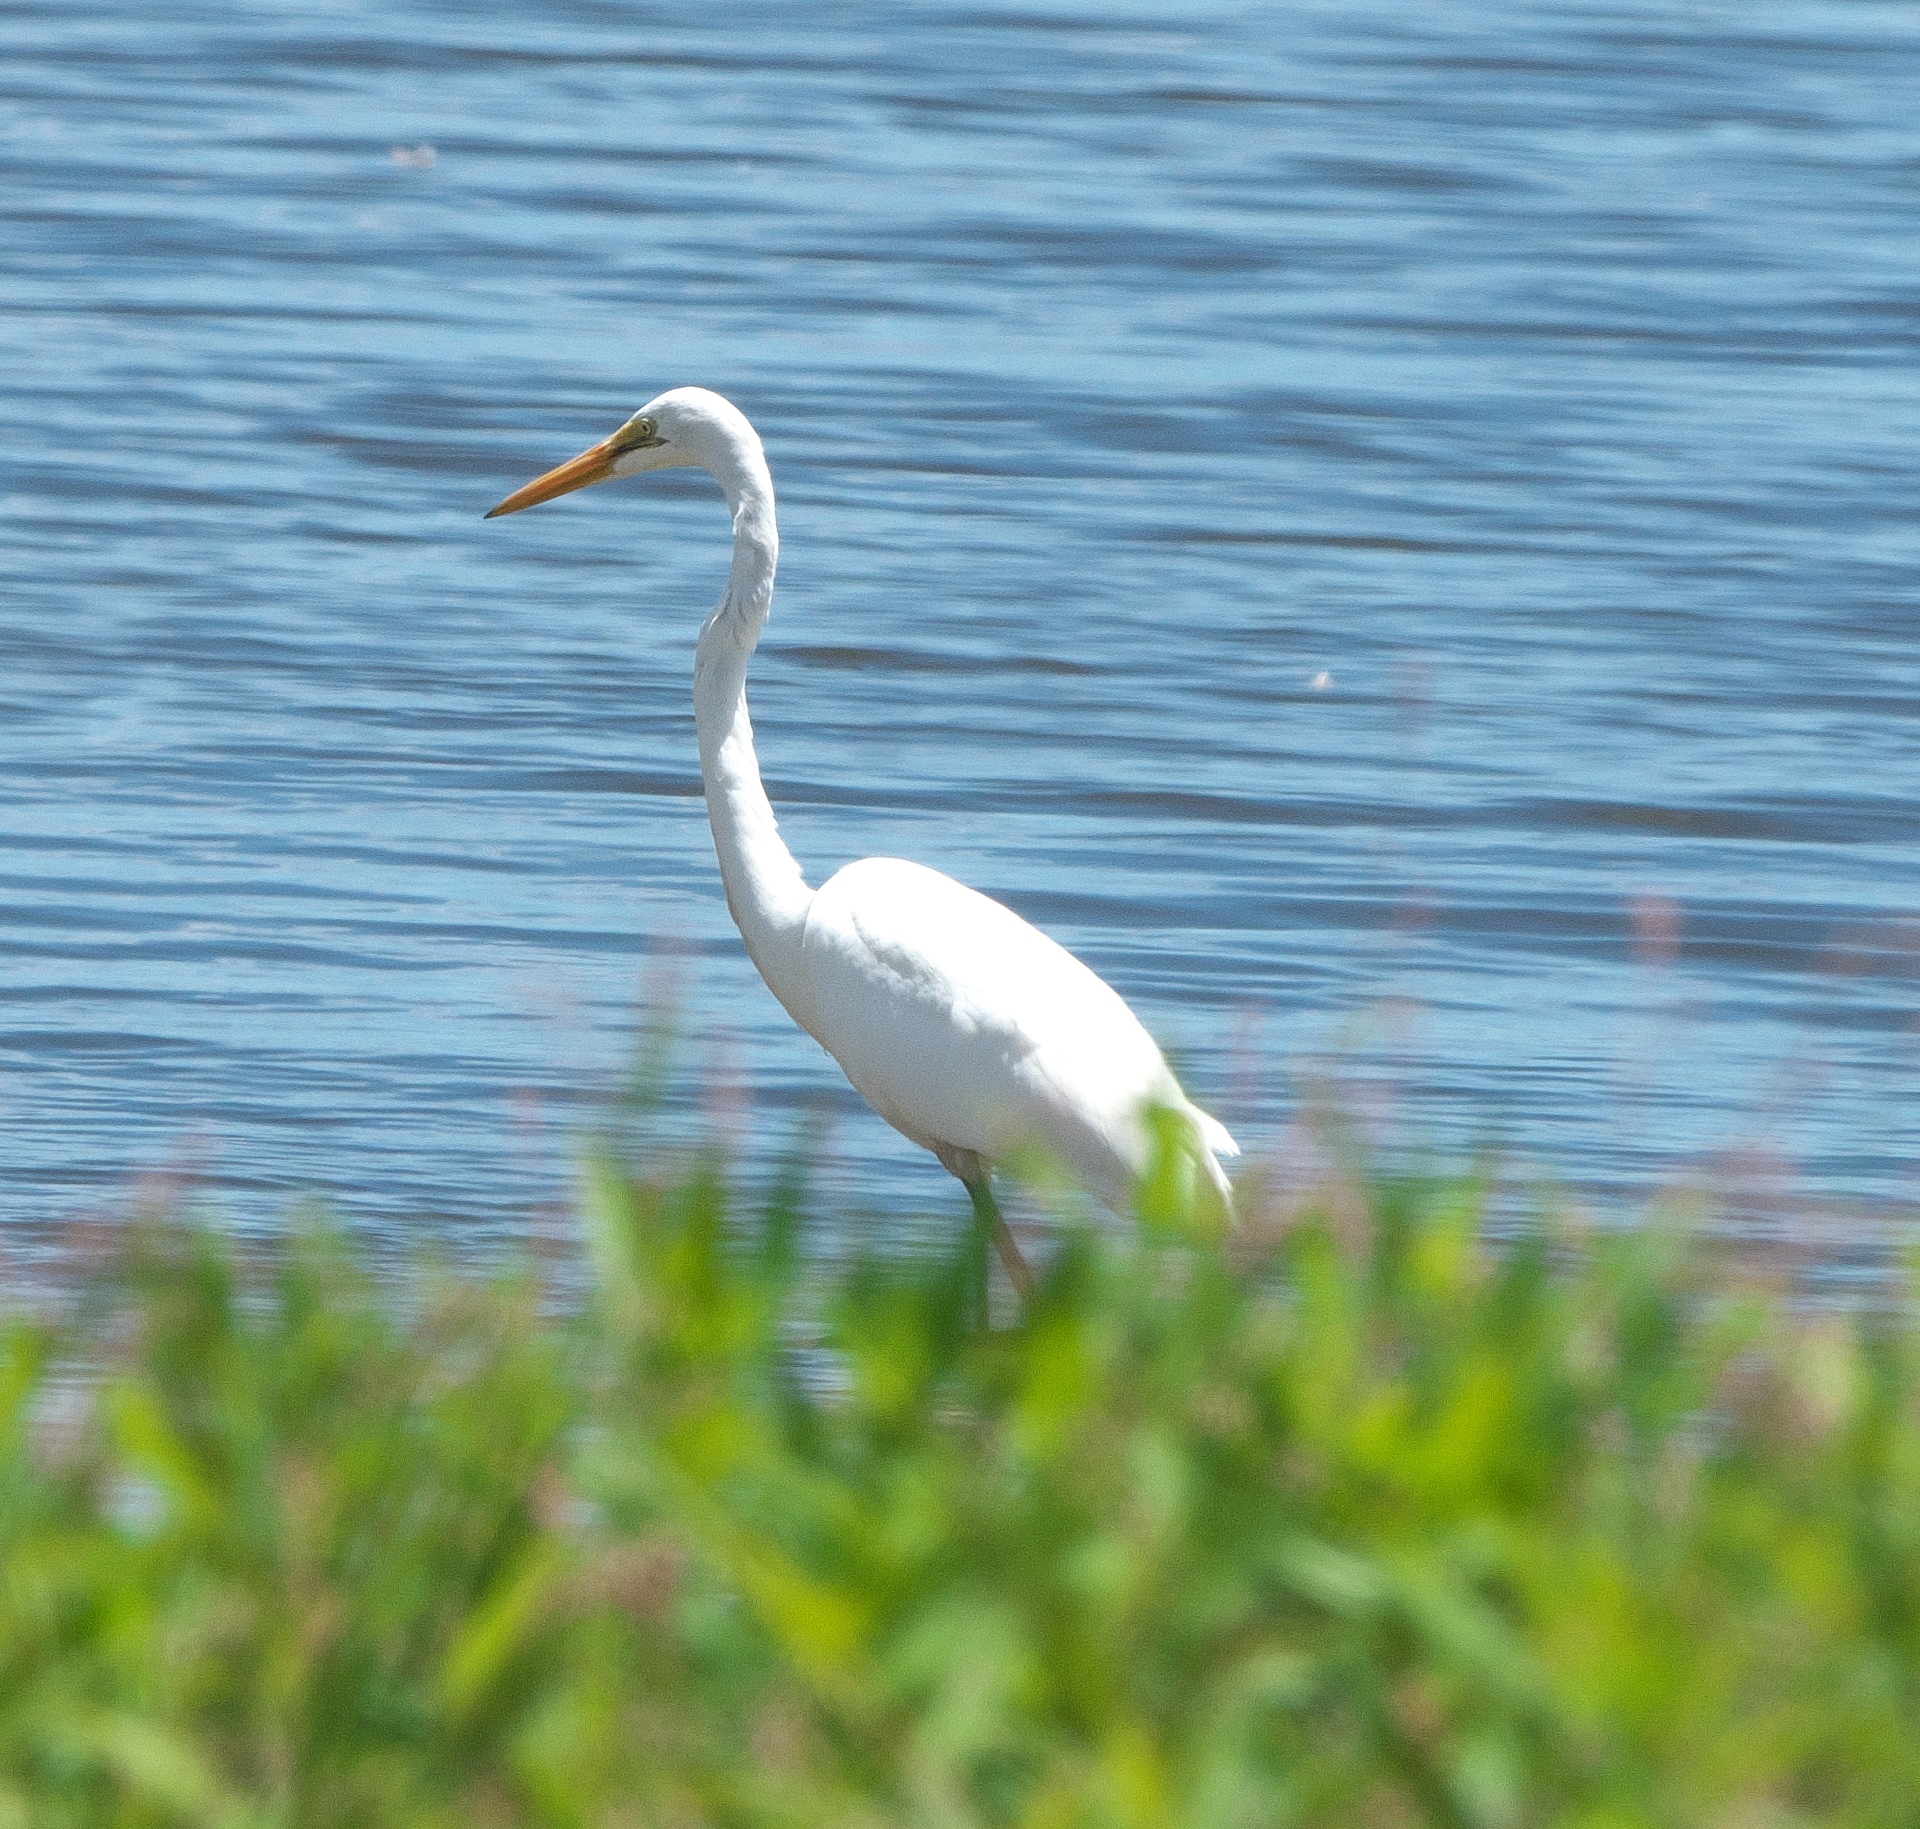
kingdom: Animalia
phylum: Chordata
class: Aves
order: Pelecaniformes
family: Ardeidae
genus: Ardea
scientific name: Ardea alba
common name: Great egret
